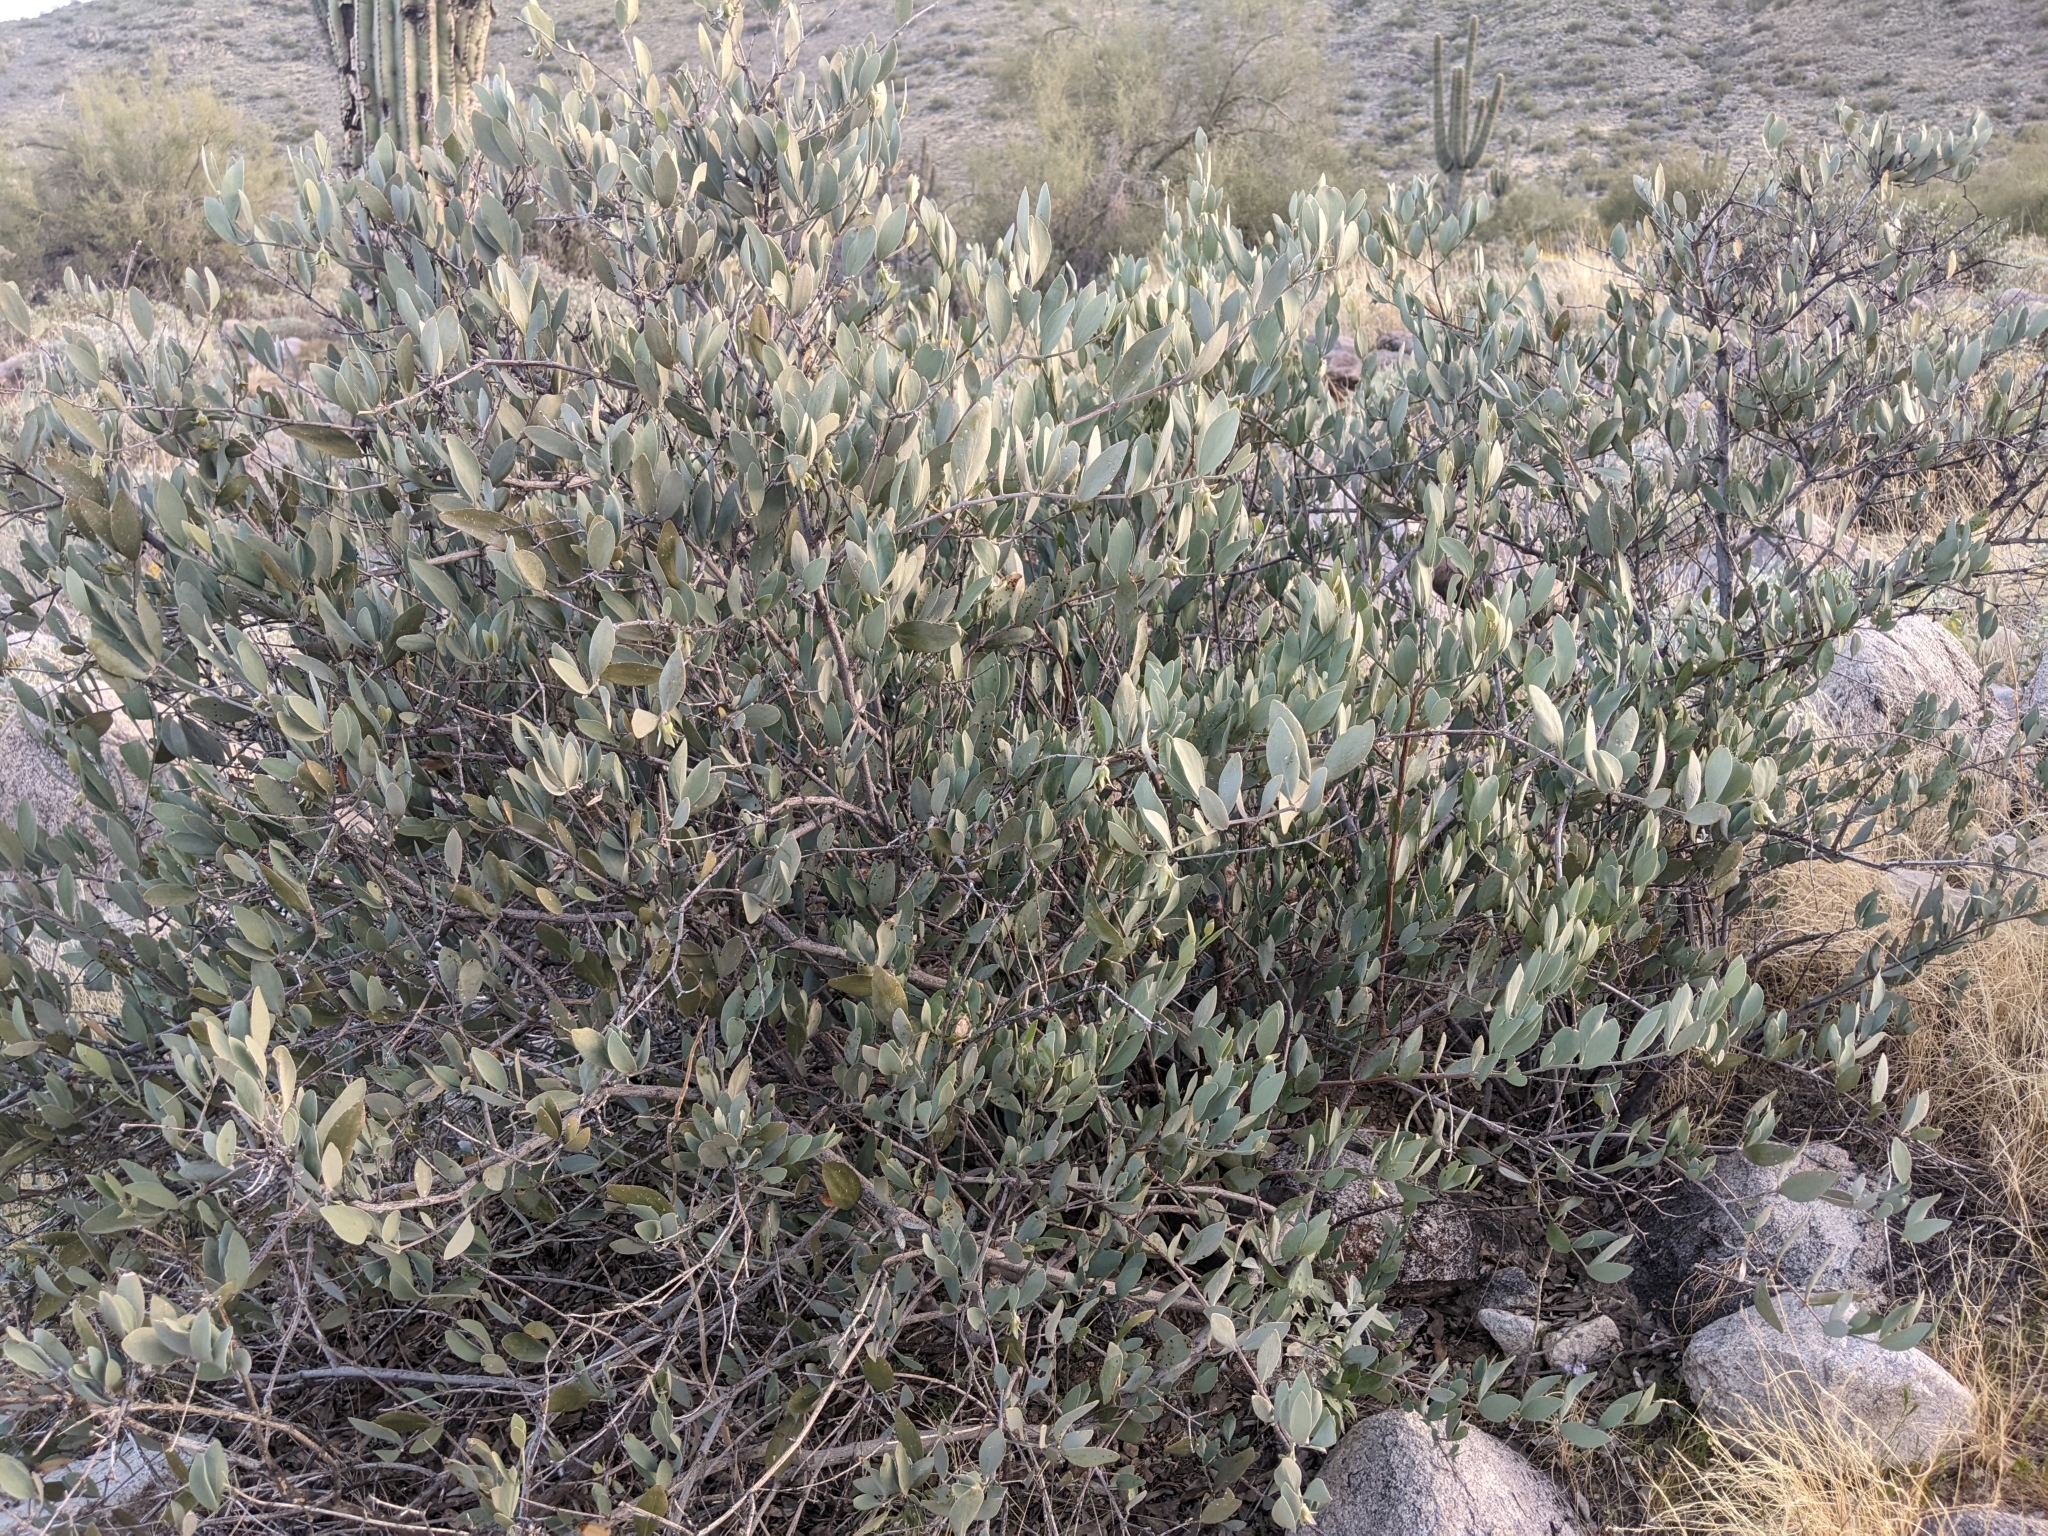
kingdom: Plantae
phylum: Tracheophyta
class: Magnoliopsida
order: Caryophyllales
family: Simmondsiaceae
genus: Simmondsia
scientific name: Simmondsia chinensis
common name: Jojoba
